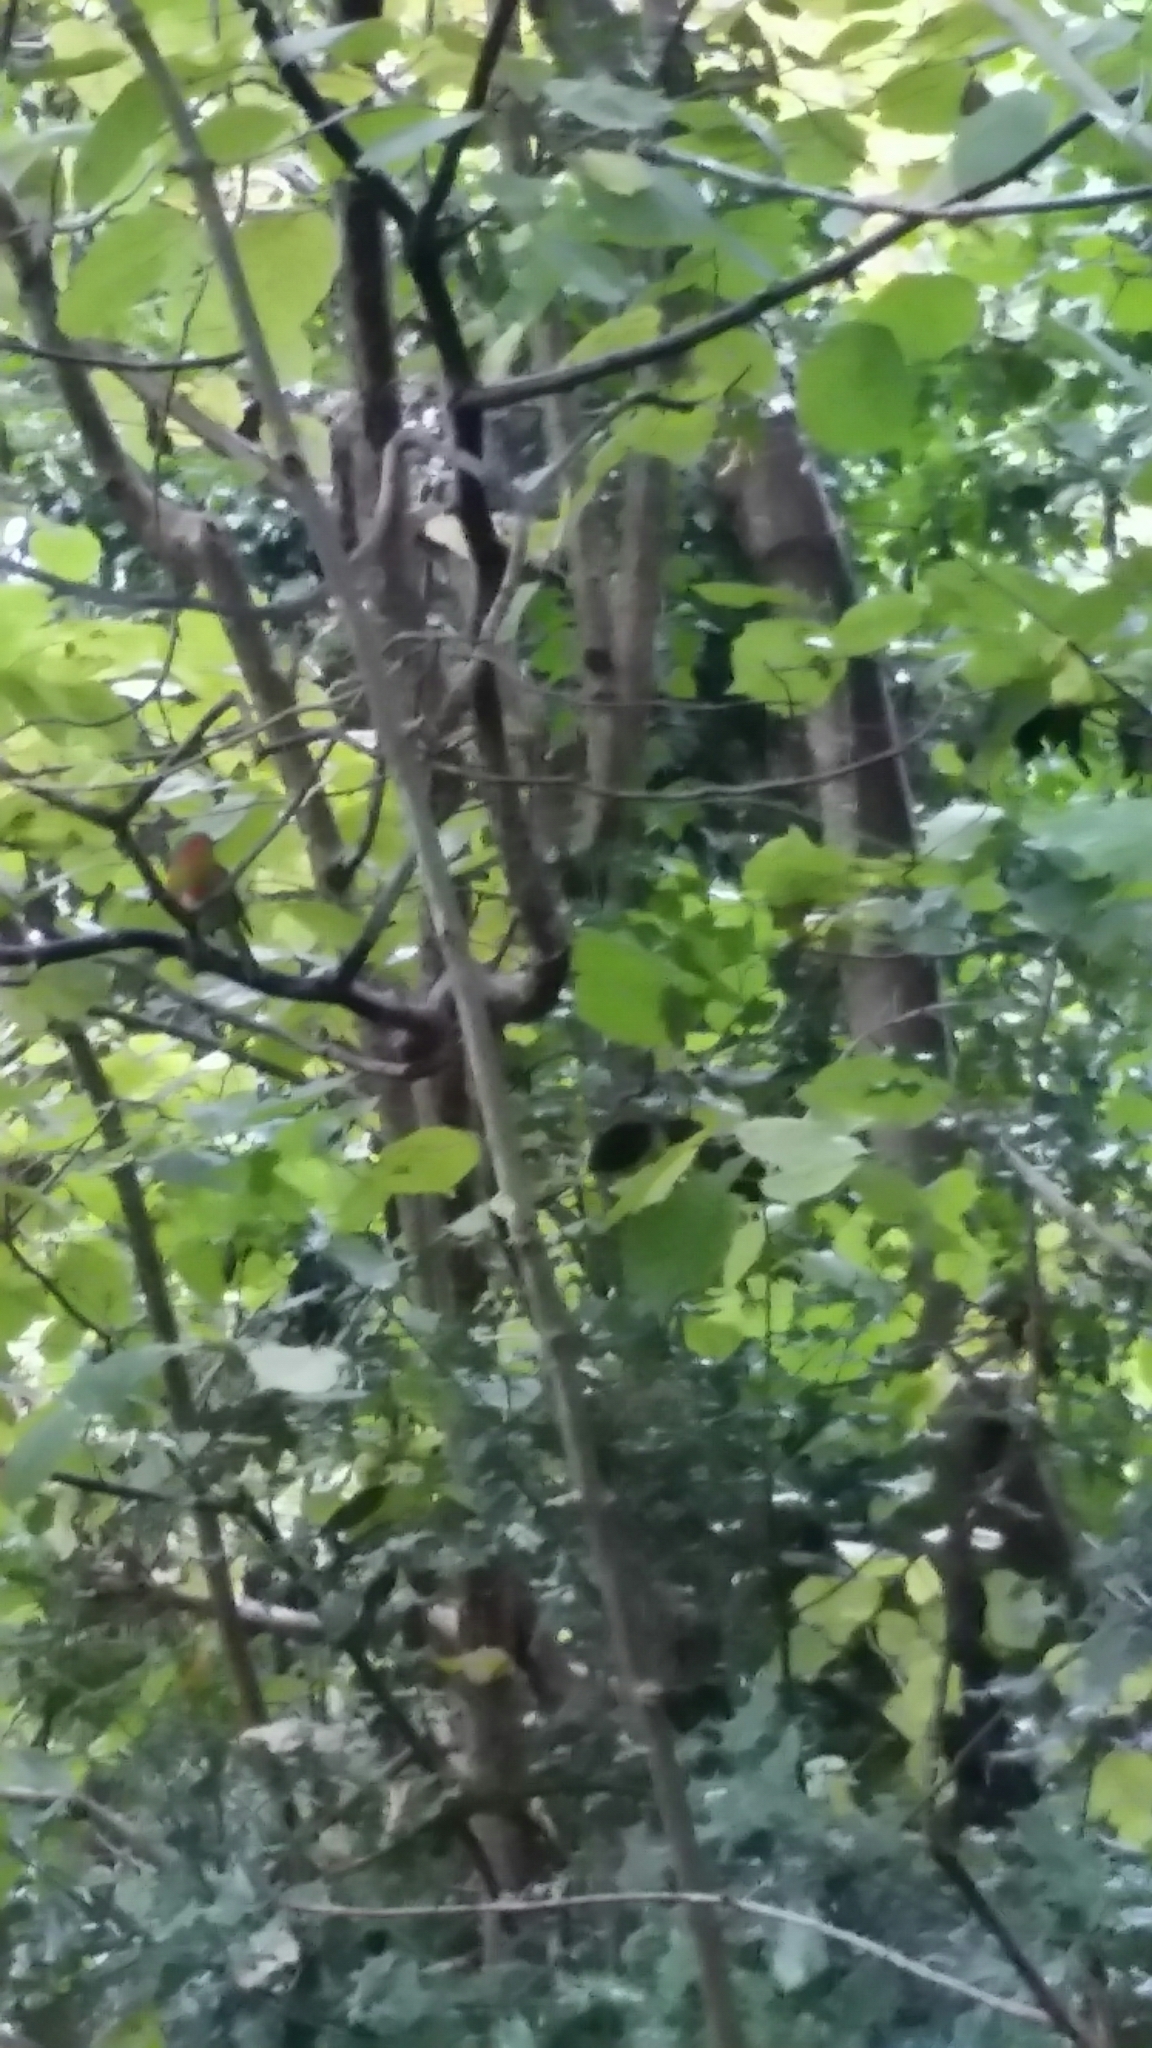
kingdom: Animalia
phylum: Chordata
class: Aves
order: Passeriformes
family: Muscicapidae
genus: Erithacus
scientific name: Erithacus rubecula
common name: European robin
